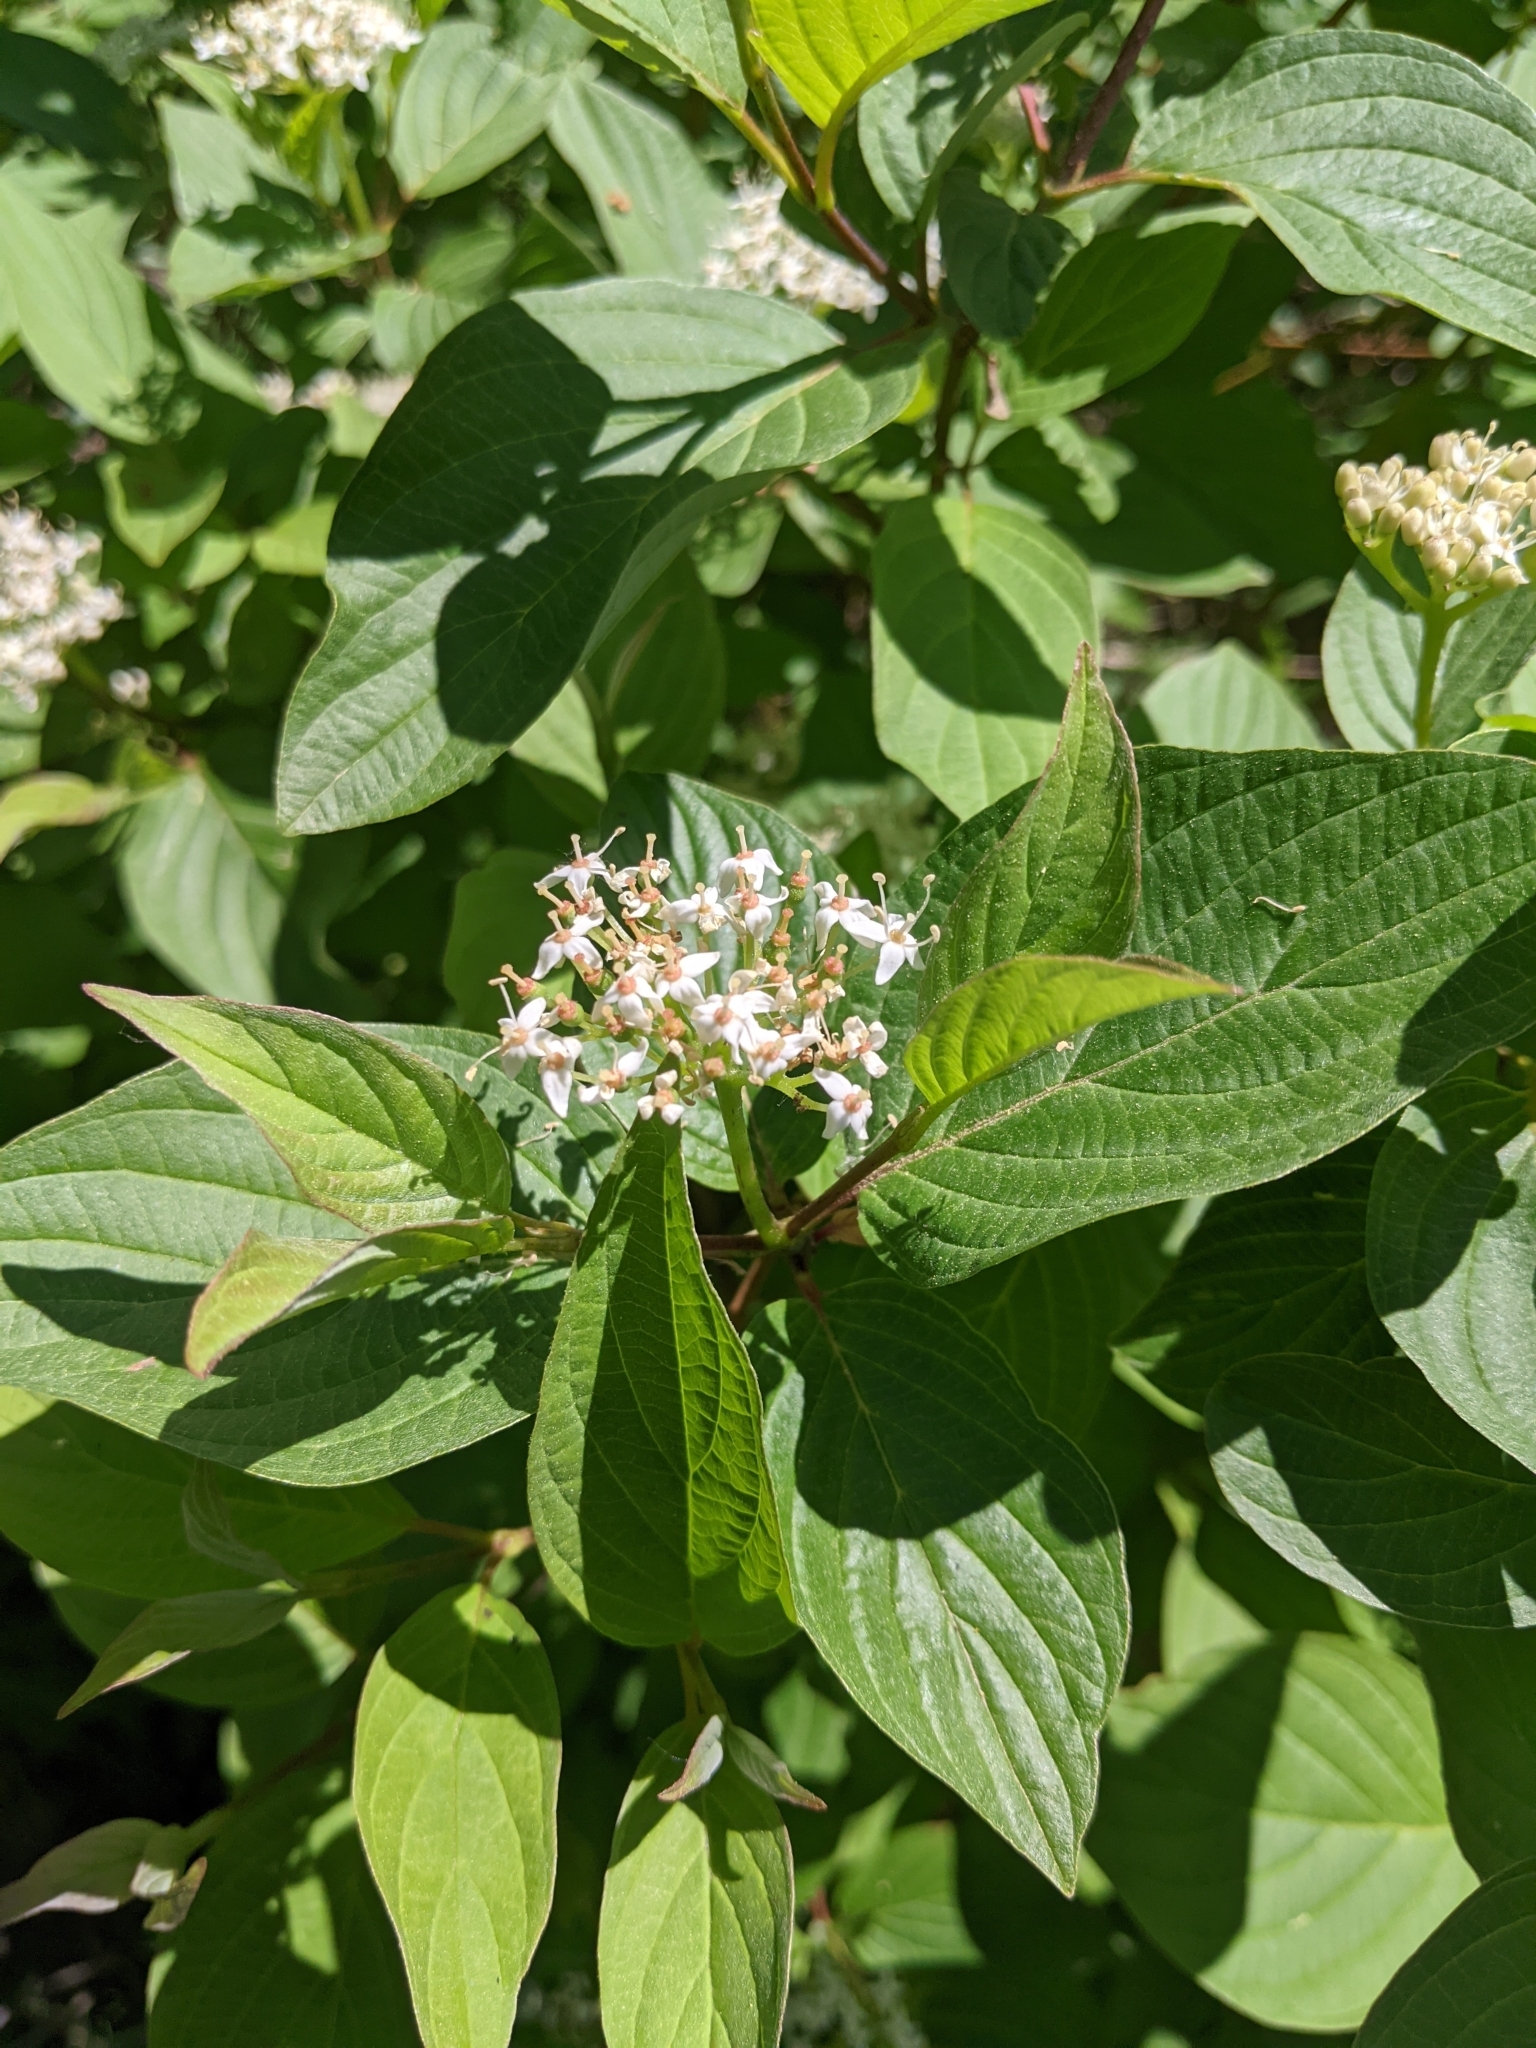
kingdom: Plantae
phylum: Tracheophyta
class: Magnoliopsida
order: Cornales
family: Cornaceae
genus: Cornus
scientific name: Cornus sericea
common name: Red-osier dogwood
